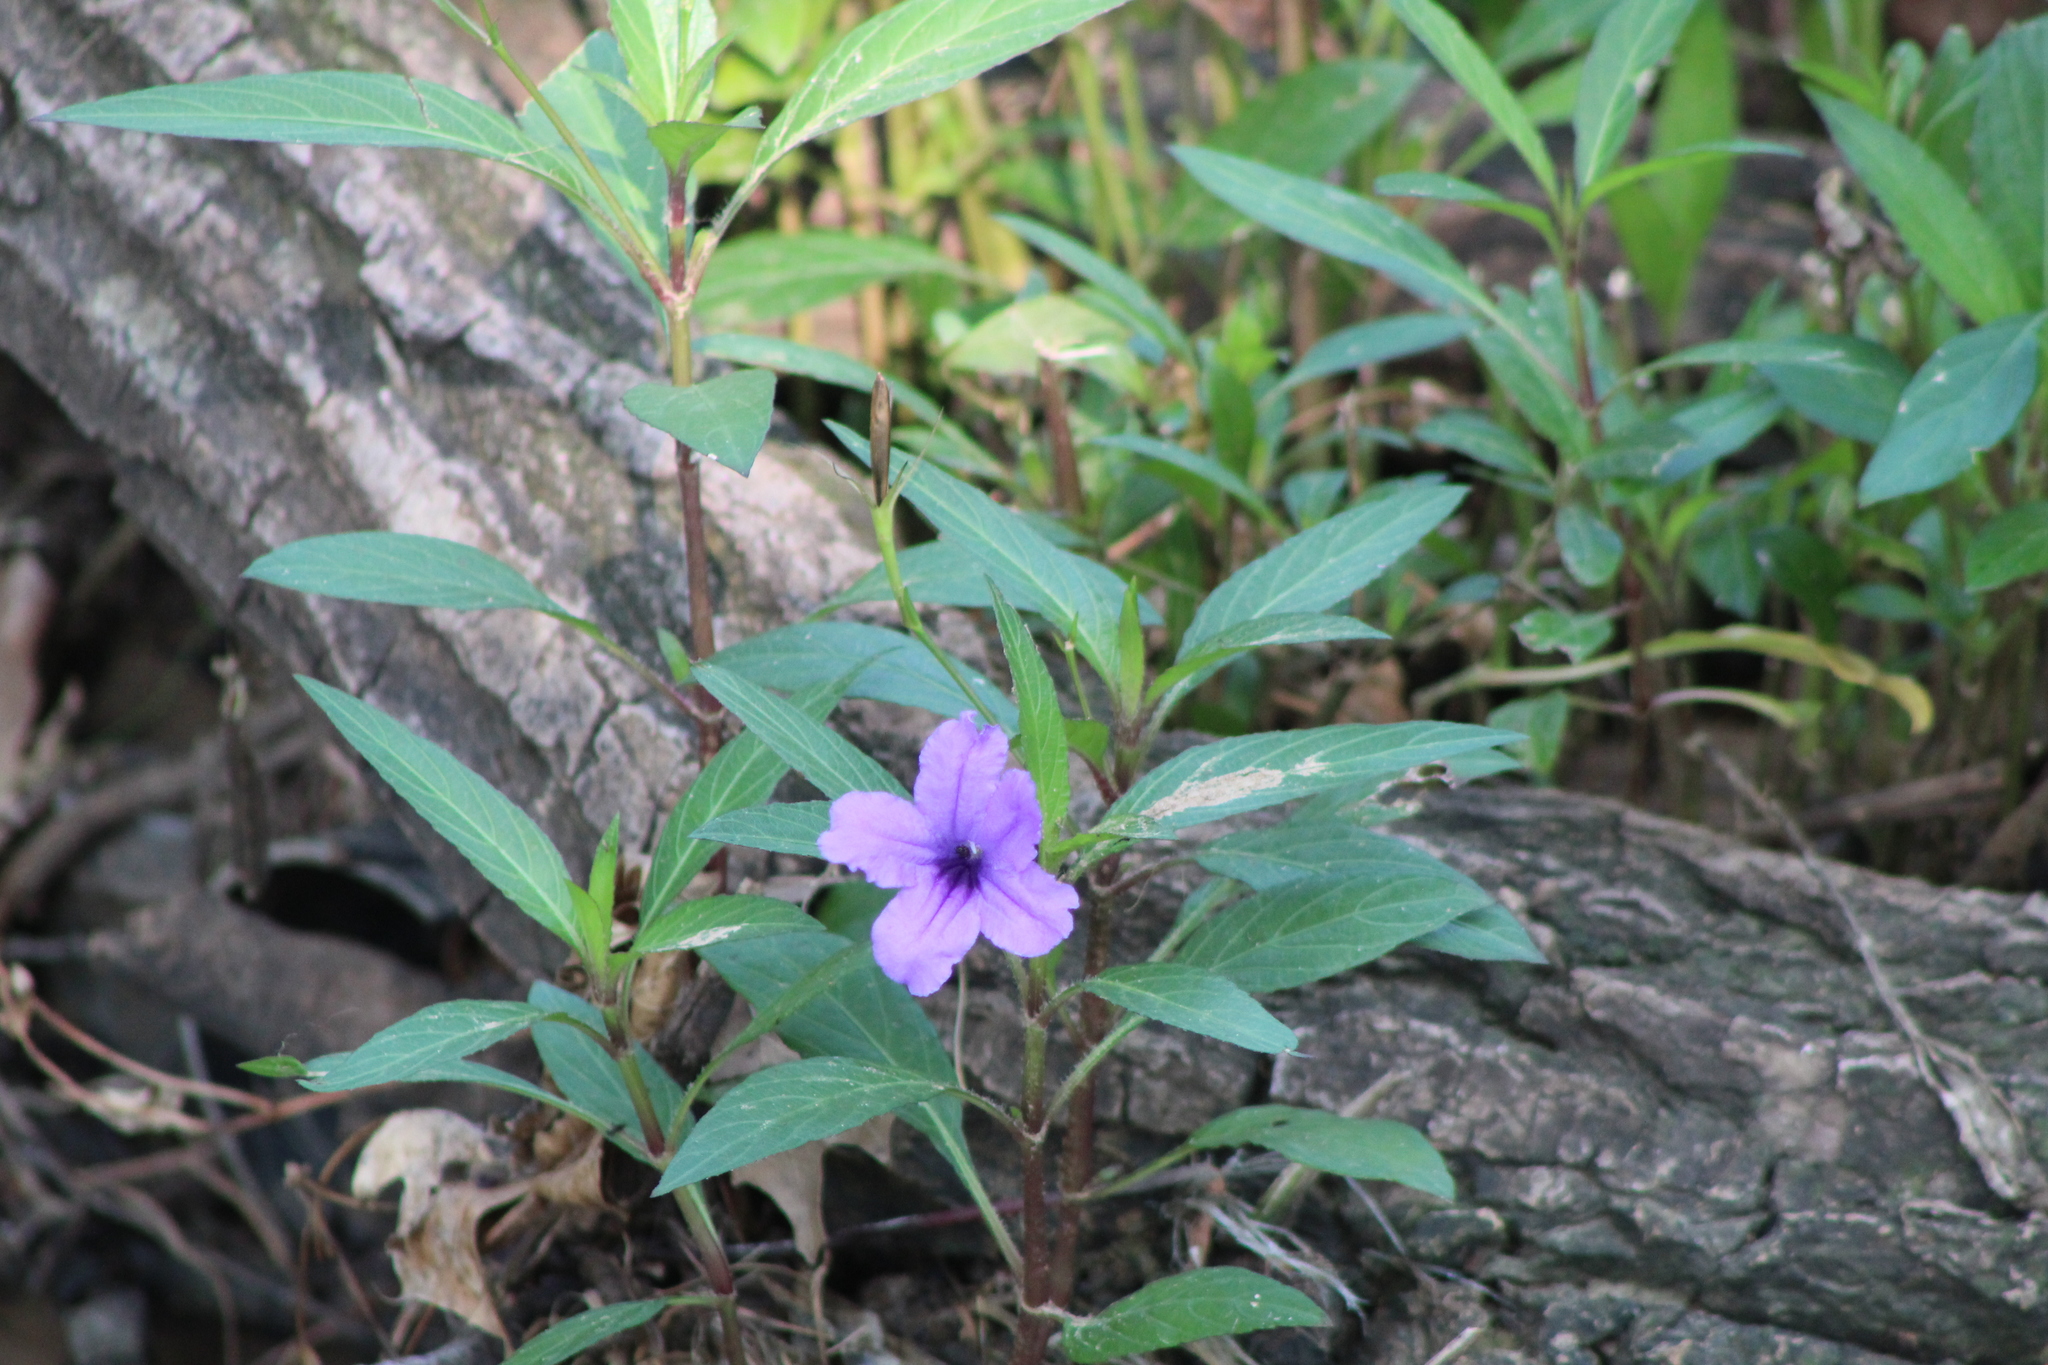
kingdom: Plantae
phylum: Tracheophyta
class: Magnoliopsida
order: Lamiales
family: Acanthaceae
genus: Ruellia
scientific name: Ruellia simplex
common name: Softseed wild petunia
